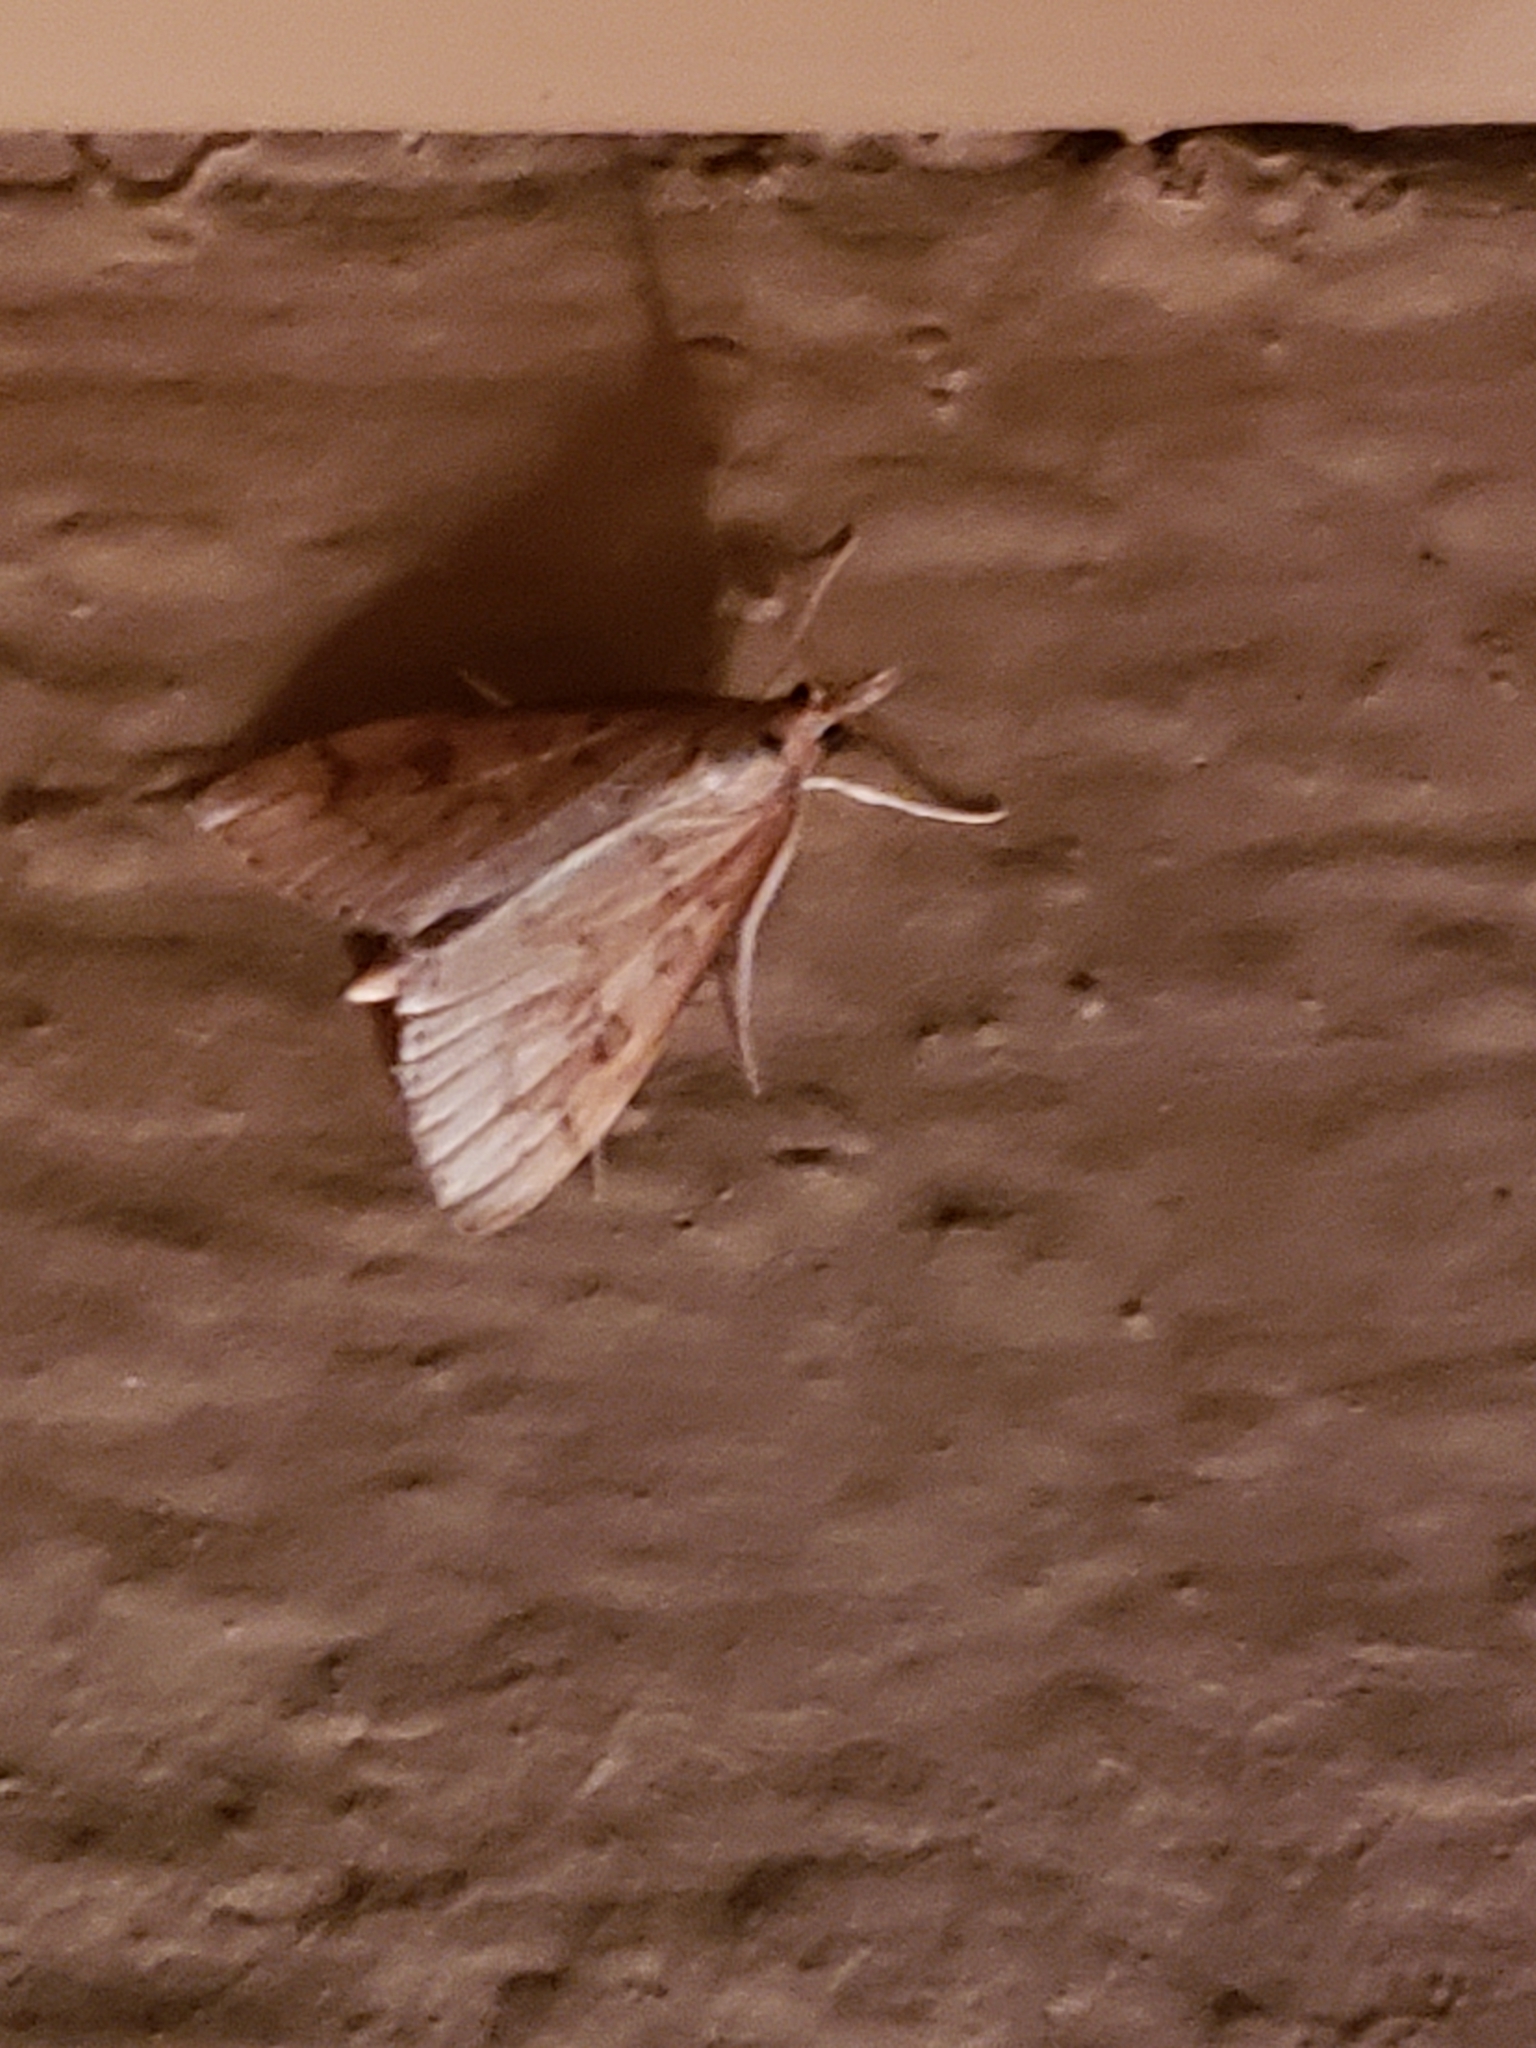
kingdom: Animalia
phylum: Arthropoda
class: Insecta
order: Lepidoptera
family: Crambidae
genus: Udea
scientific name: Udea rubigalis
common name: Celery leaftier moth
